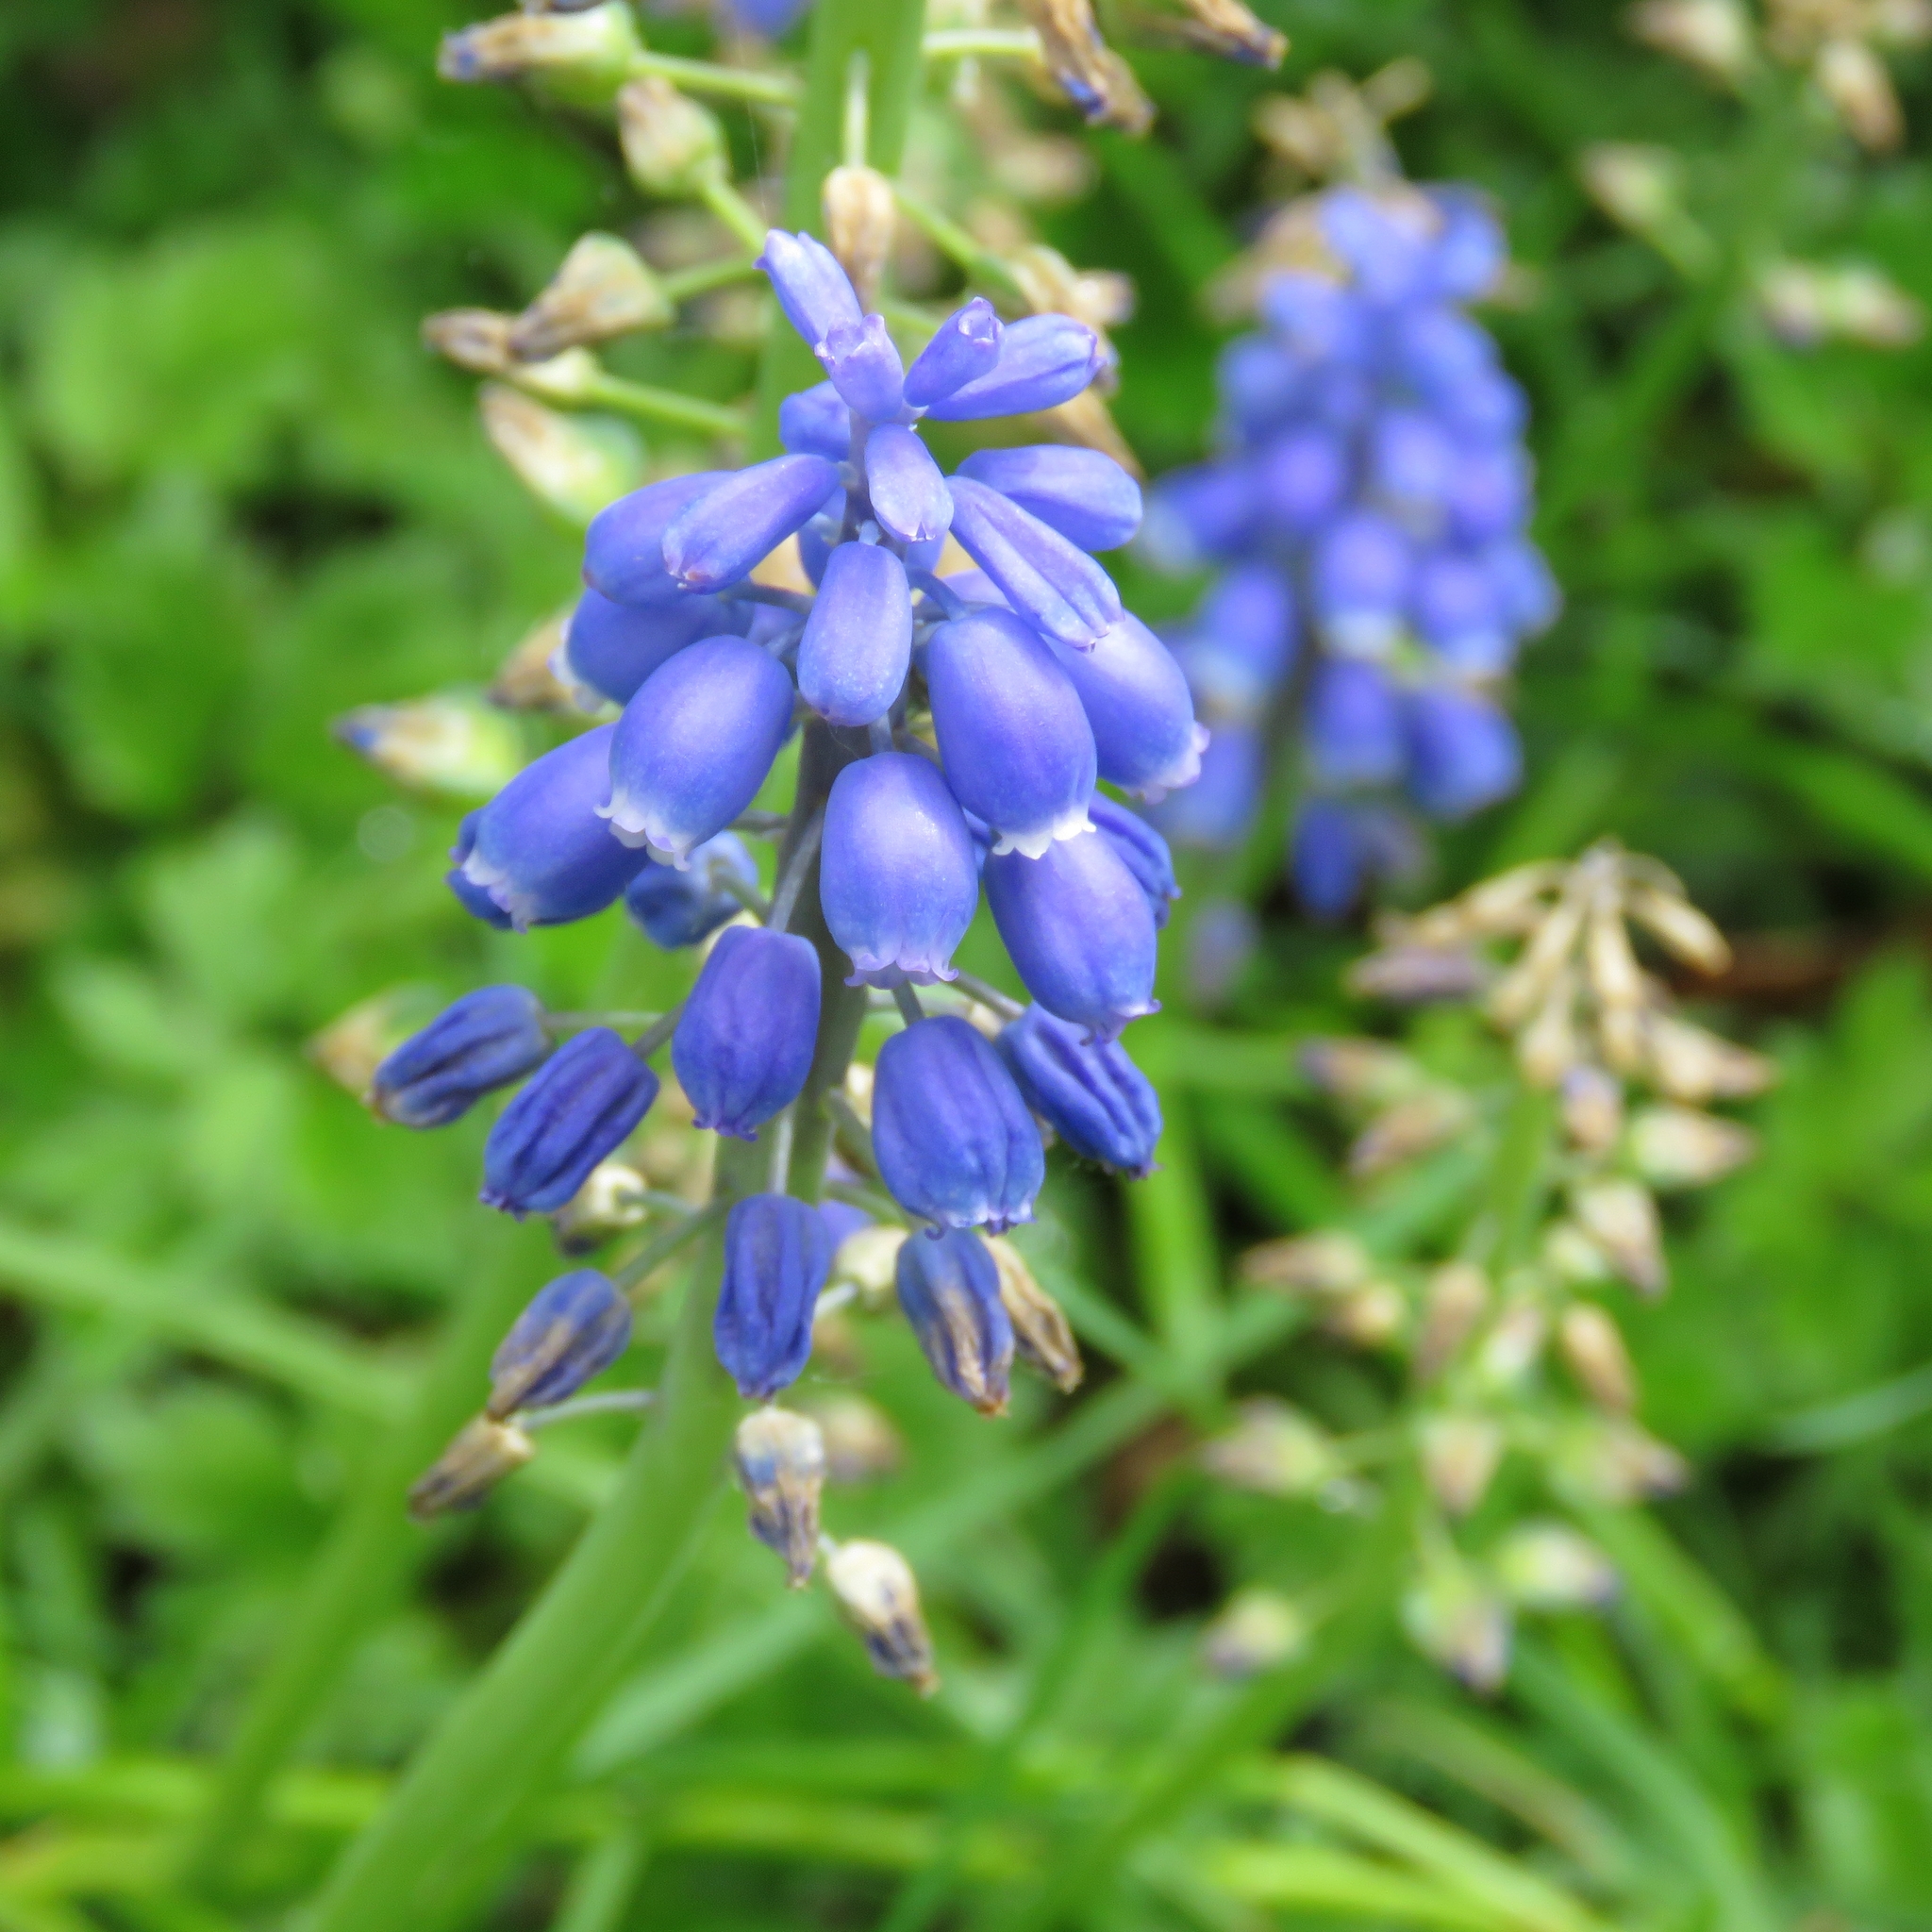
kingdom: Plantae
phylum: Tracheophyta
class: Liliopsida
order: Asparagales
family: Asparagaceae
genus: Muscari
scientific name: Muscari armeniacum
